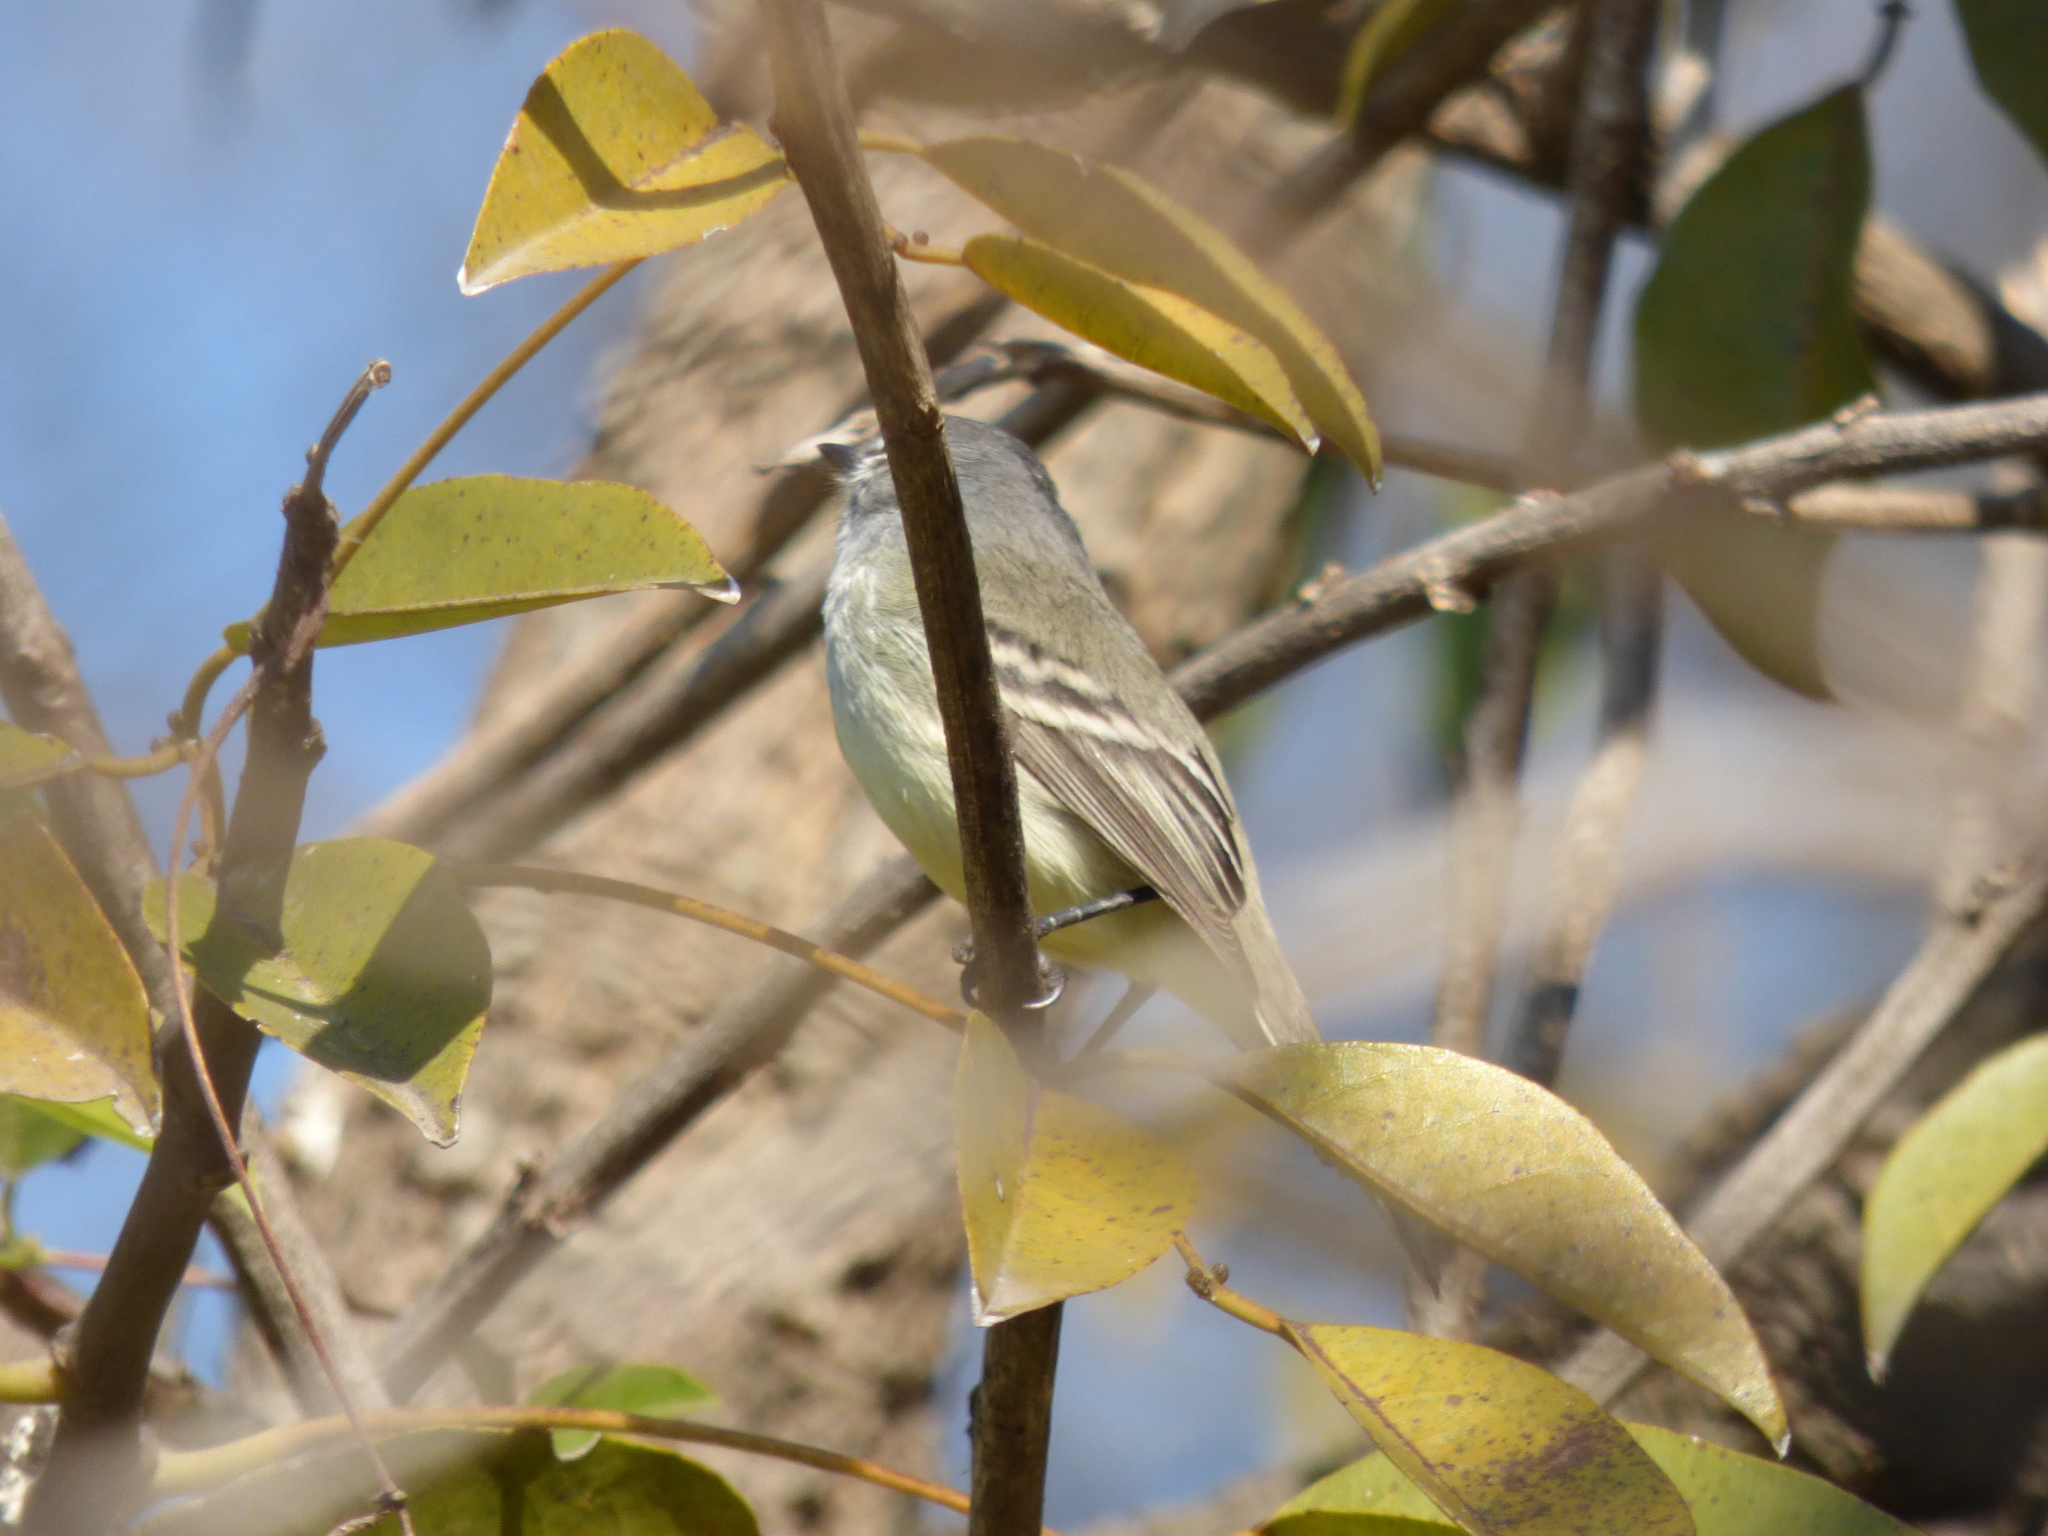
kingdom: Animalia
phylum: Chordata
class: Aves
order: Passeriformes
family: Tyrannidae
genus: Serpophaga
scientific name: Serpophaga griseicapilla
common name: Straneck's tyrannulet
